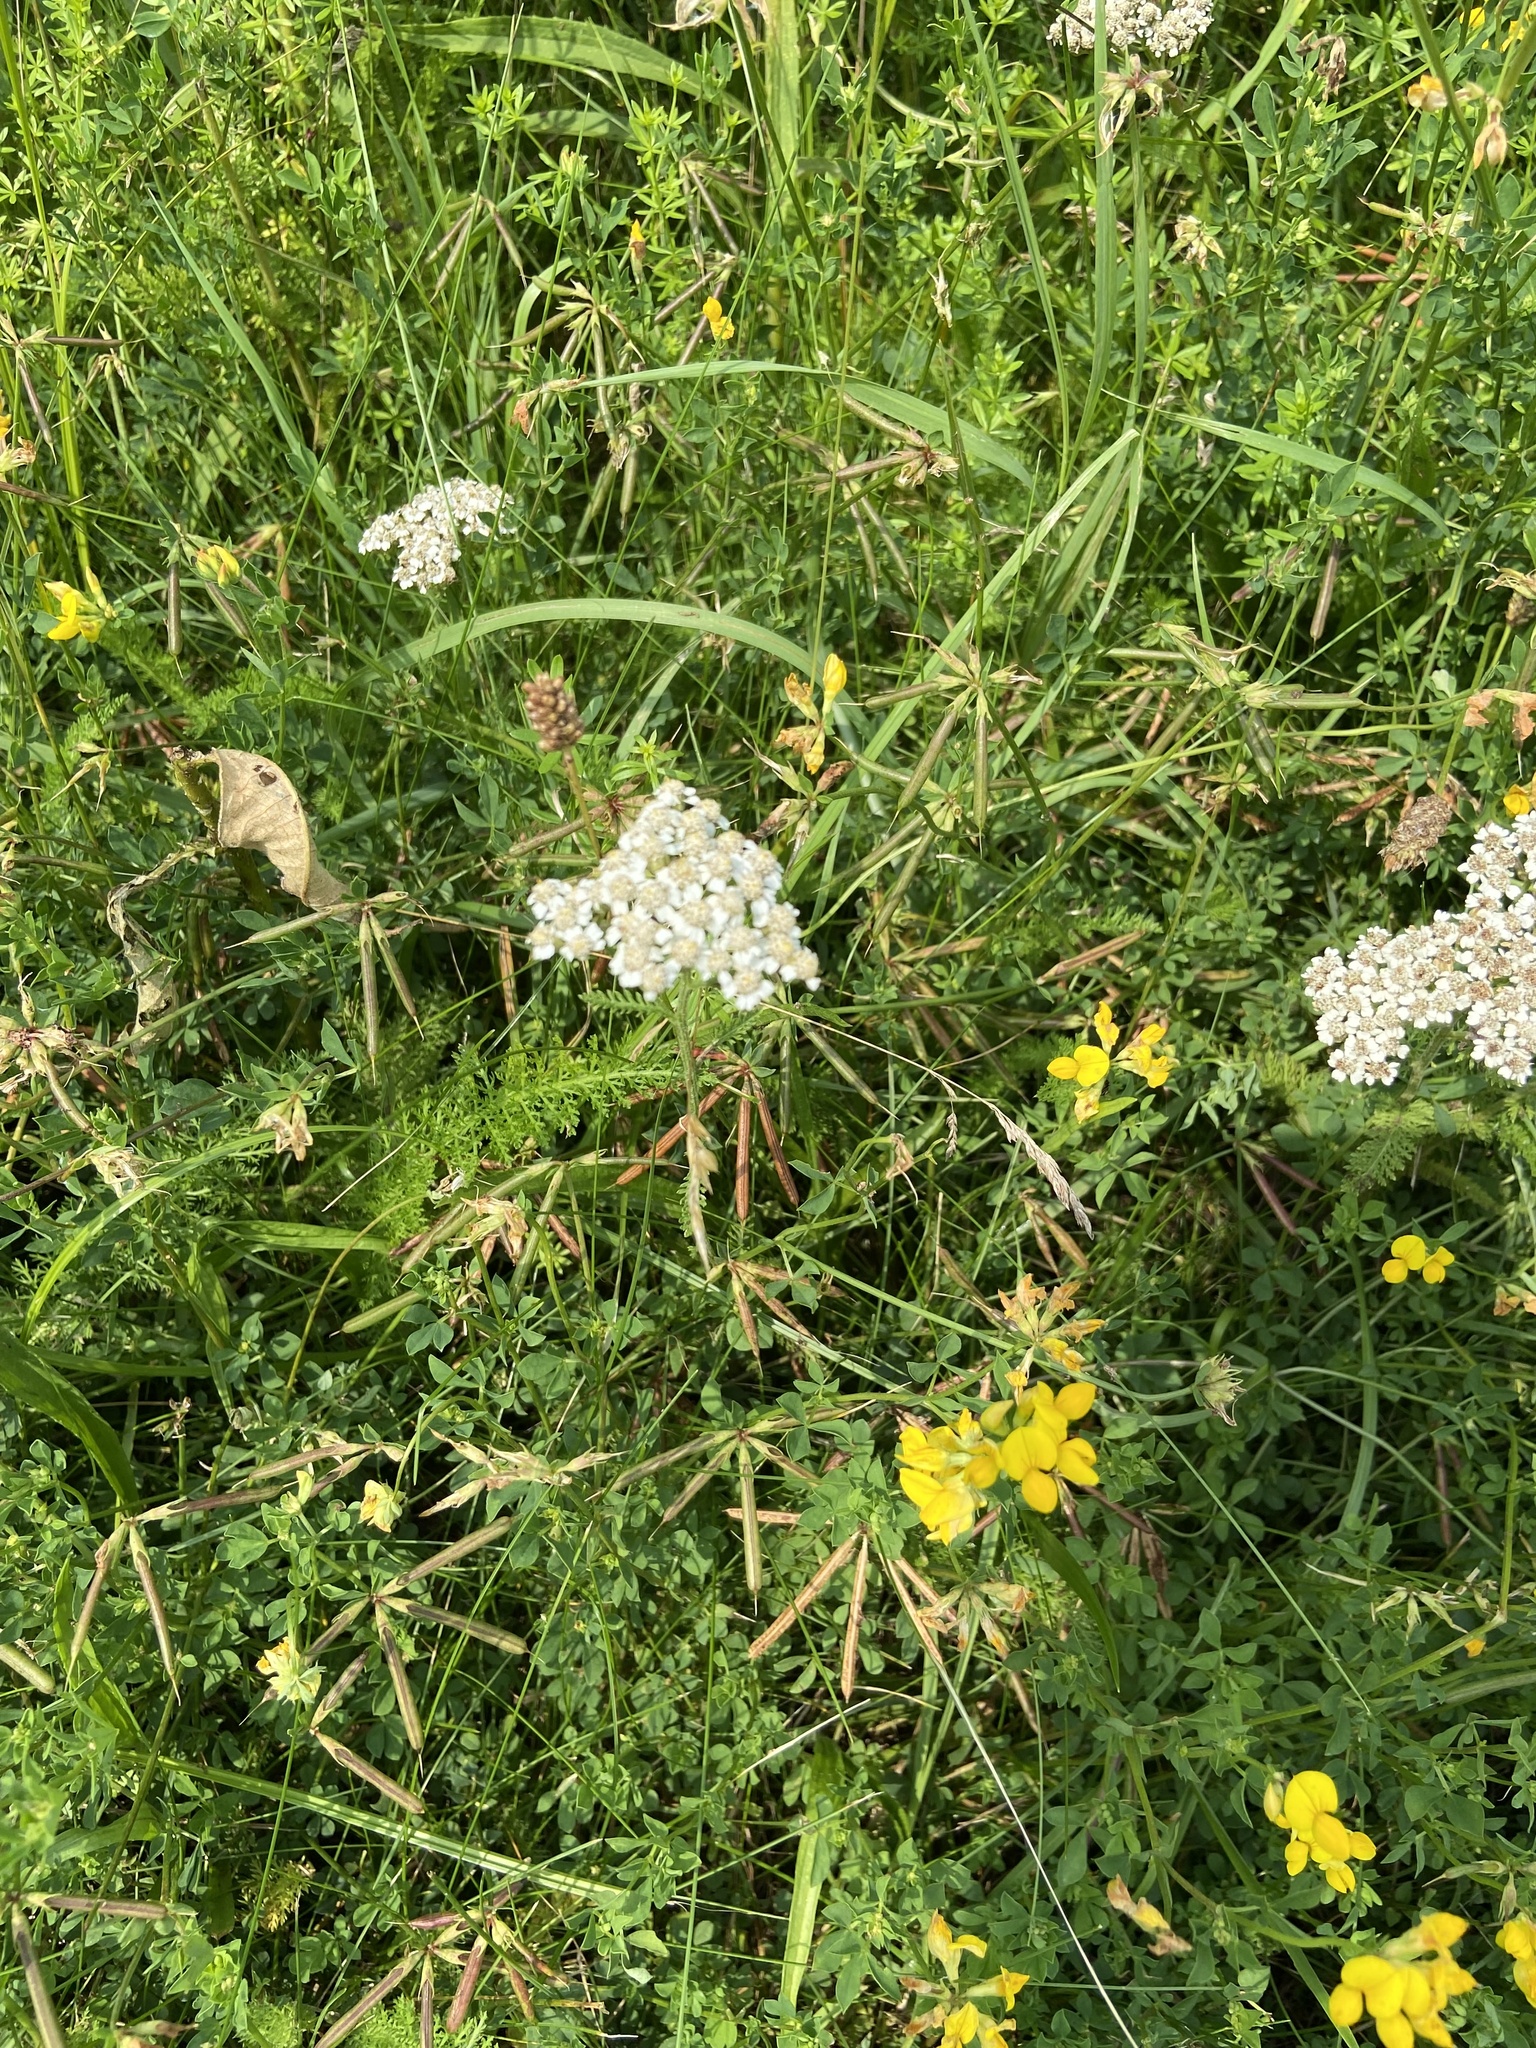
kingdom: Plantae
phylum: Tracheophyta
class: Magnoliopsida
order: Asterales
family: Asteraceae
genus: Achillea
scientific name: Achillea millefolium
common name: Yarrow
